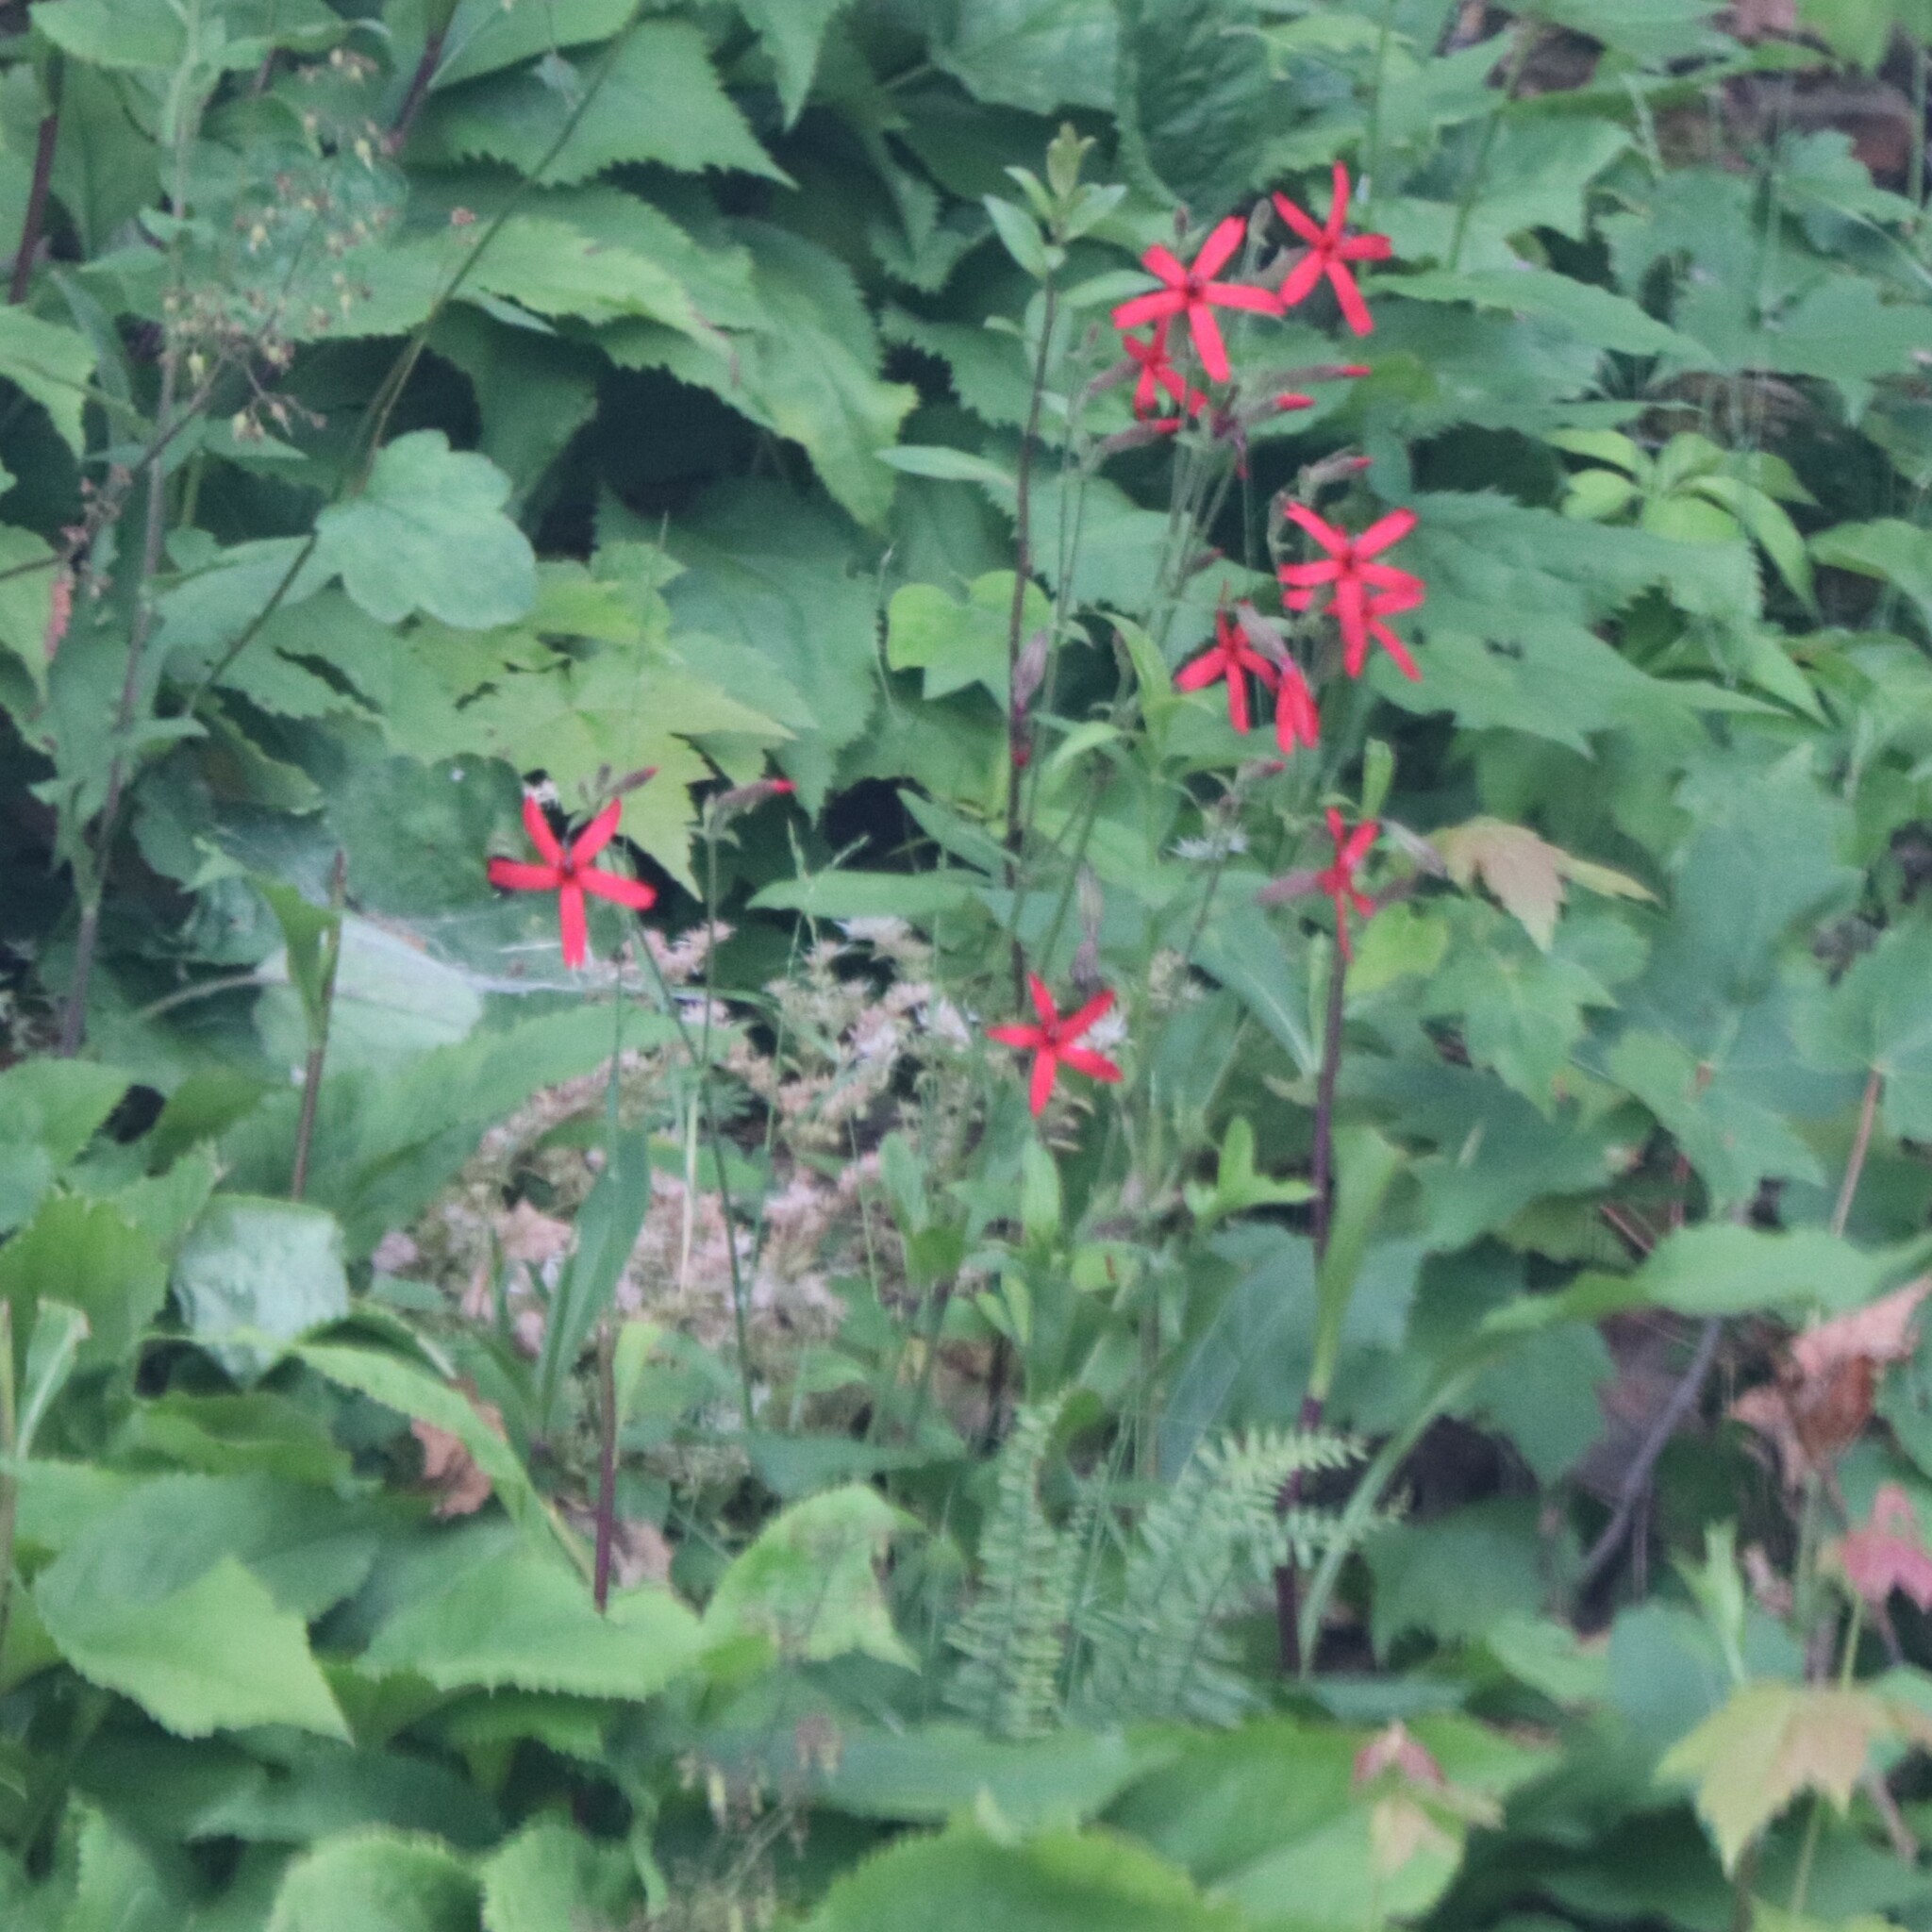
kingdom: Plantae
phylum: Tracheophyta
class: Magnoliopsida
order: Caryophyllales
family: Caryophyllaceae
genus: Silene
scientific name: Silene virginica
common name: Fire-pink
